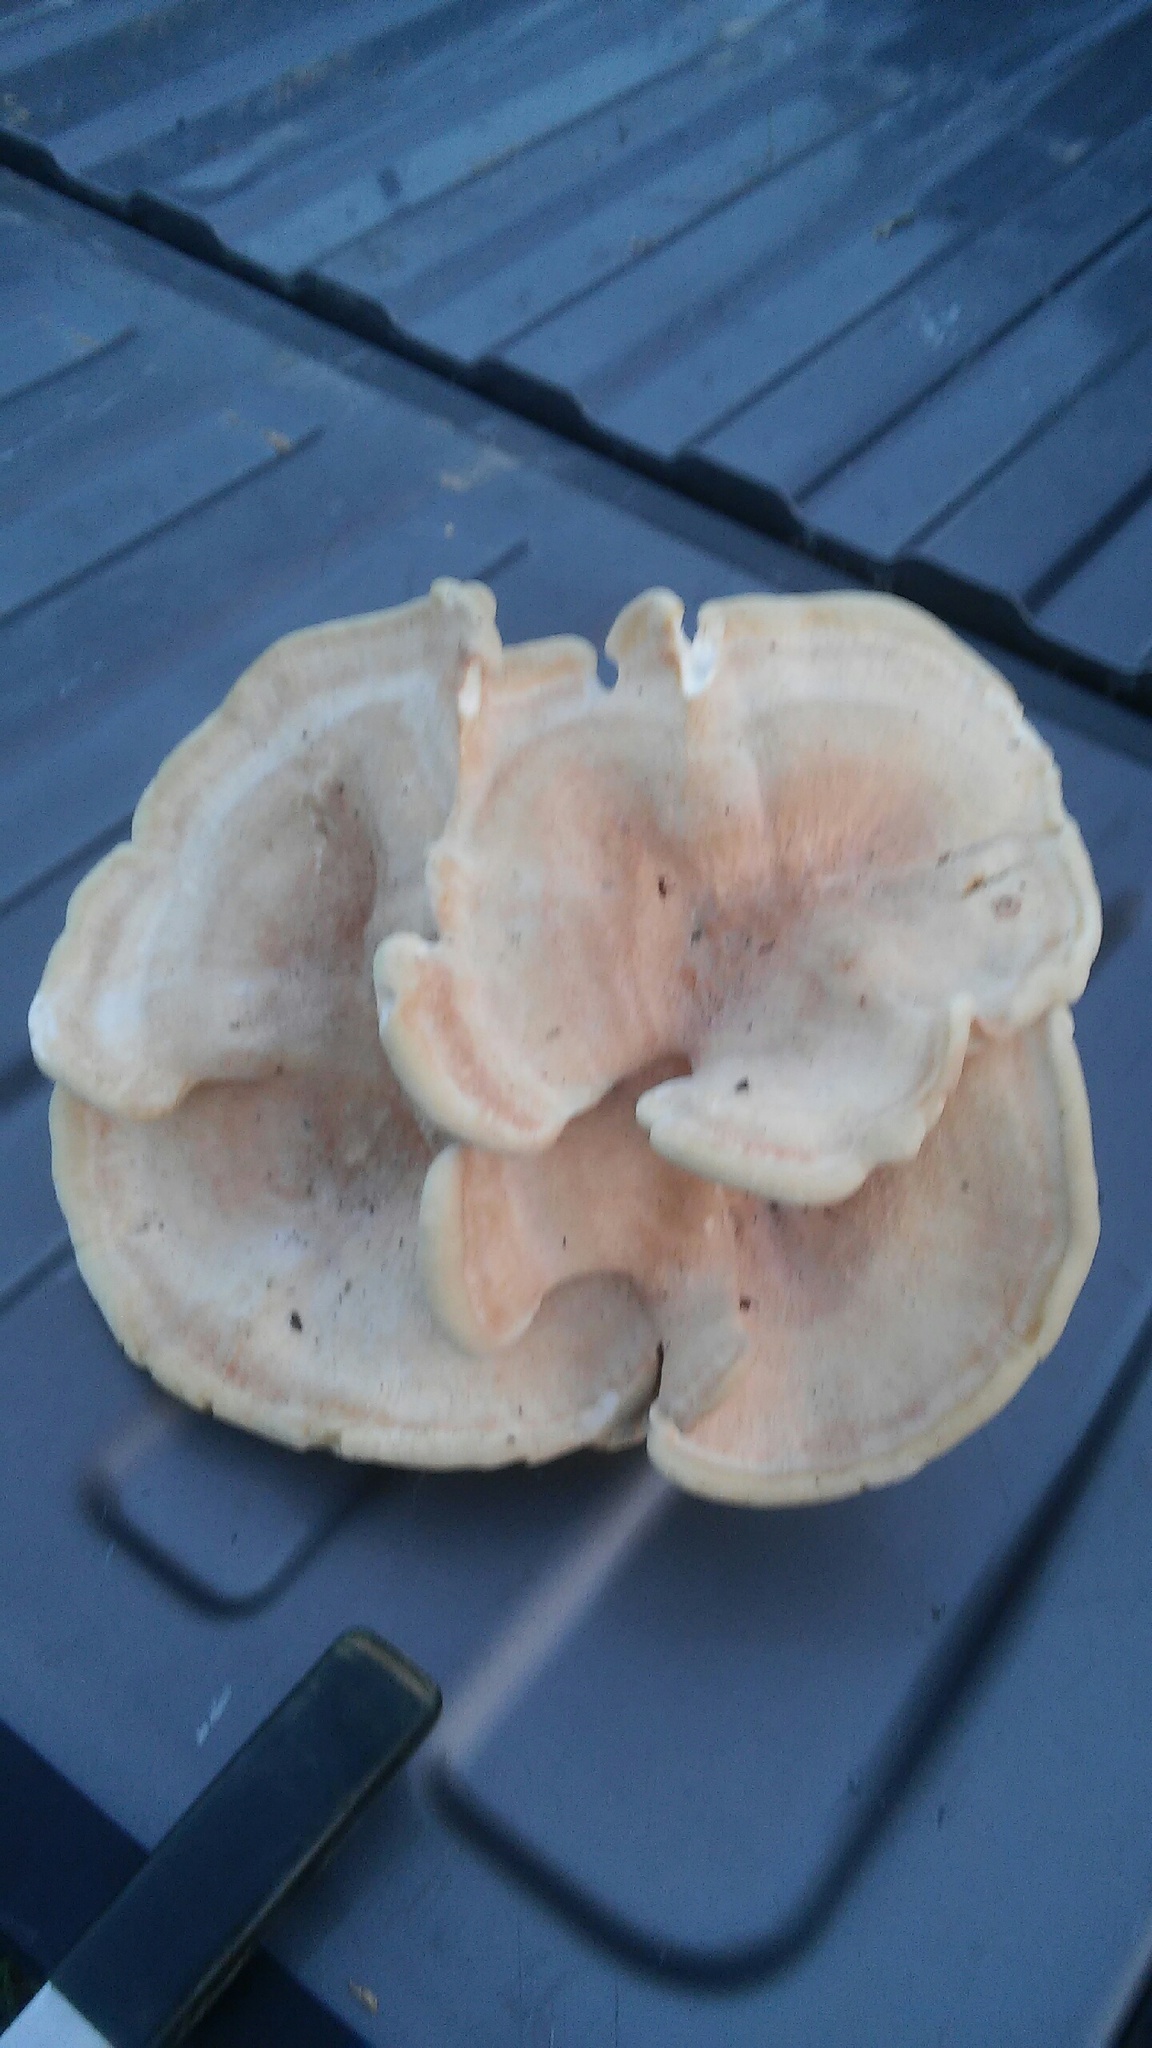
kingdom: Fungi
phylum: Basidiomycota
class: Agaricomycetes
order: Russulales
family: Bondarzewiaceae
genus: Bondarzewia
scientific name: Bondarzewia berkeleyi
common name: Berkeley's polypore
